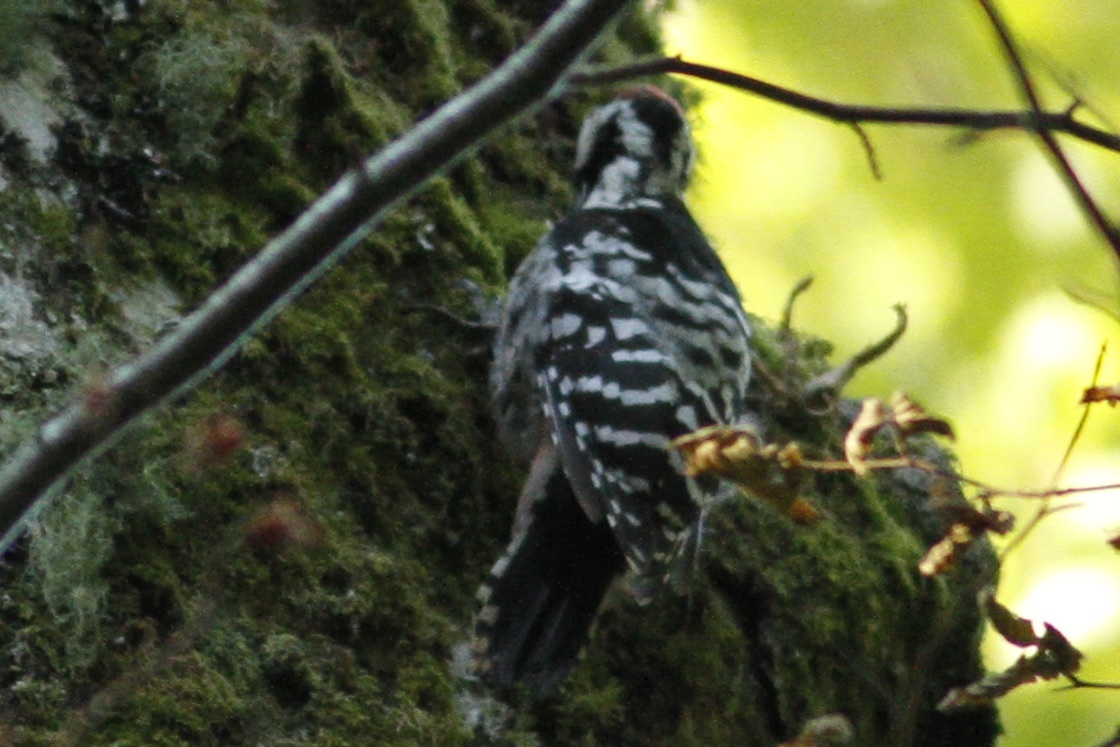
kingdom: Animalia
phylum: Chordata
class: Aves
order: Piciformes
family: Picidae
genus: Dendrocopos
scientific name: Dendrocopos leucotos
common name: White-backed woodpecker
